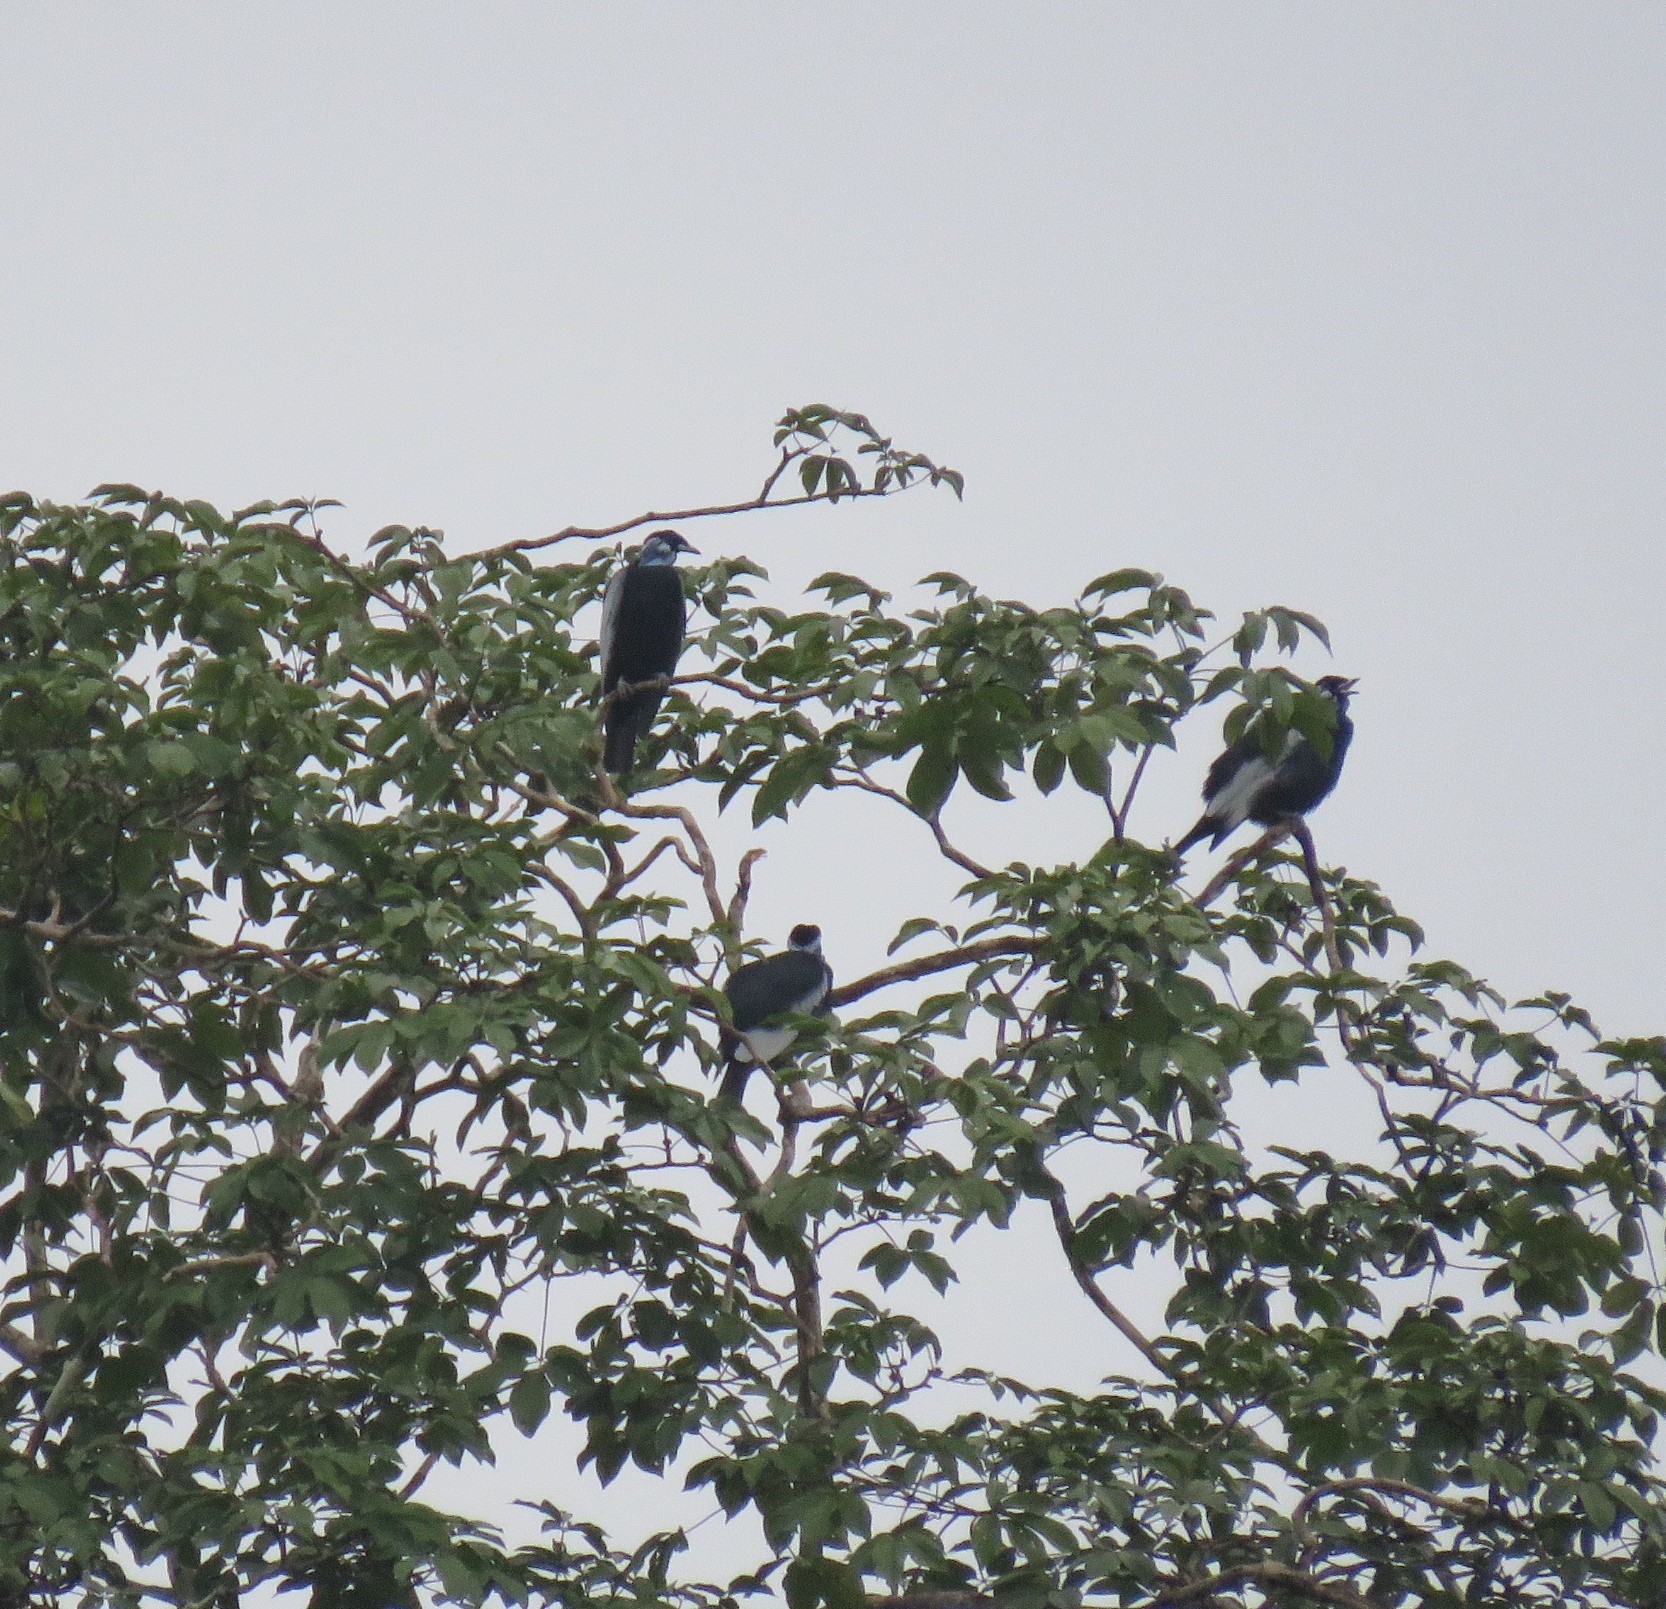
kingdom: Animalia
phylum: Chordata
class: Aves
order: Passeriformes
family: Cotingidae
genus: Gymnoderus
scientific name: Gymnoderus foetidus
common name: Bare-necked fruitcrow
